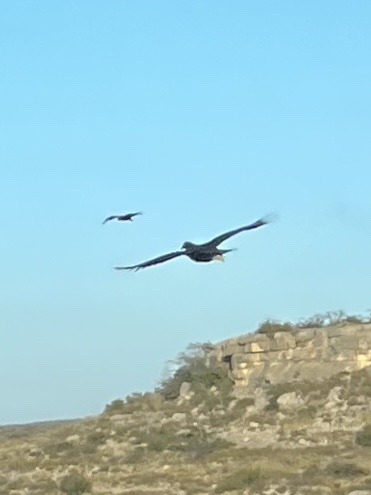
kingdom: Animalia
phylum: Chordata
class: Aves
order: Accipitriformes
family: Cathartidae
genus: Coragyps
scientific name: Coragyps atratus
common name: Black vulture
